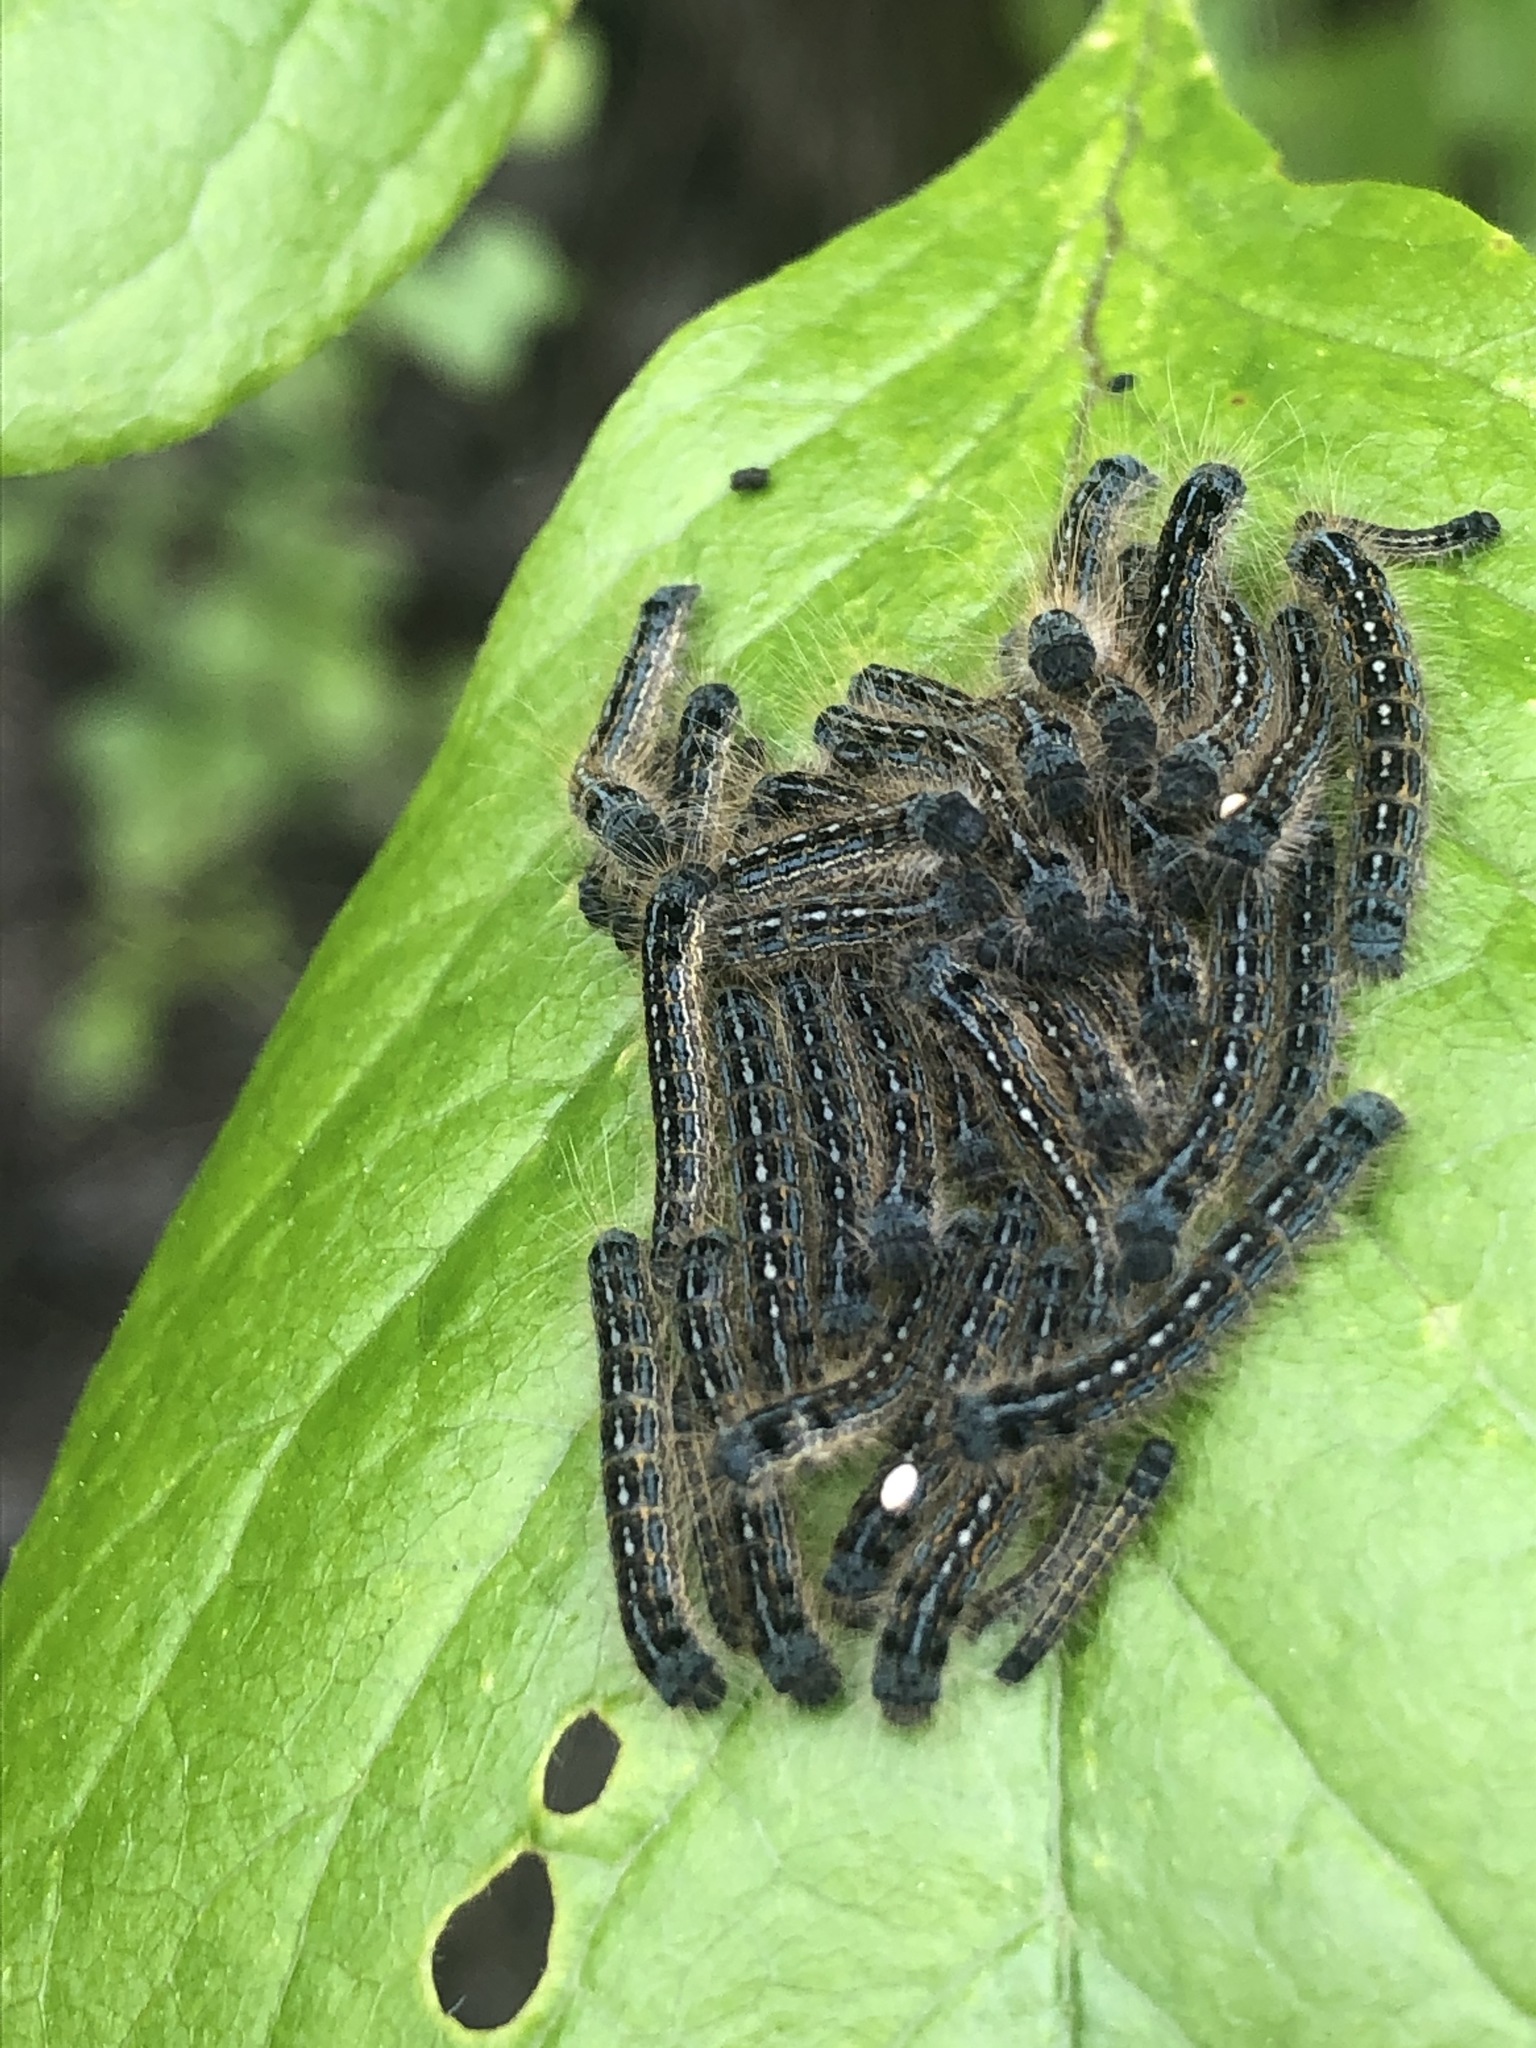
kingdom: Animalia
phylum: Arthropoda
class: Insecta
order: Lepidoptera
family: Lasiocampidae
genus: Malacosoma
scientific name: Malacosoma disstria
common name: Forest tent caterpillar
